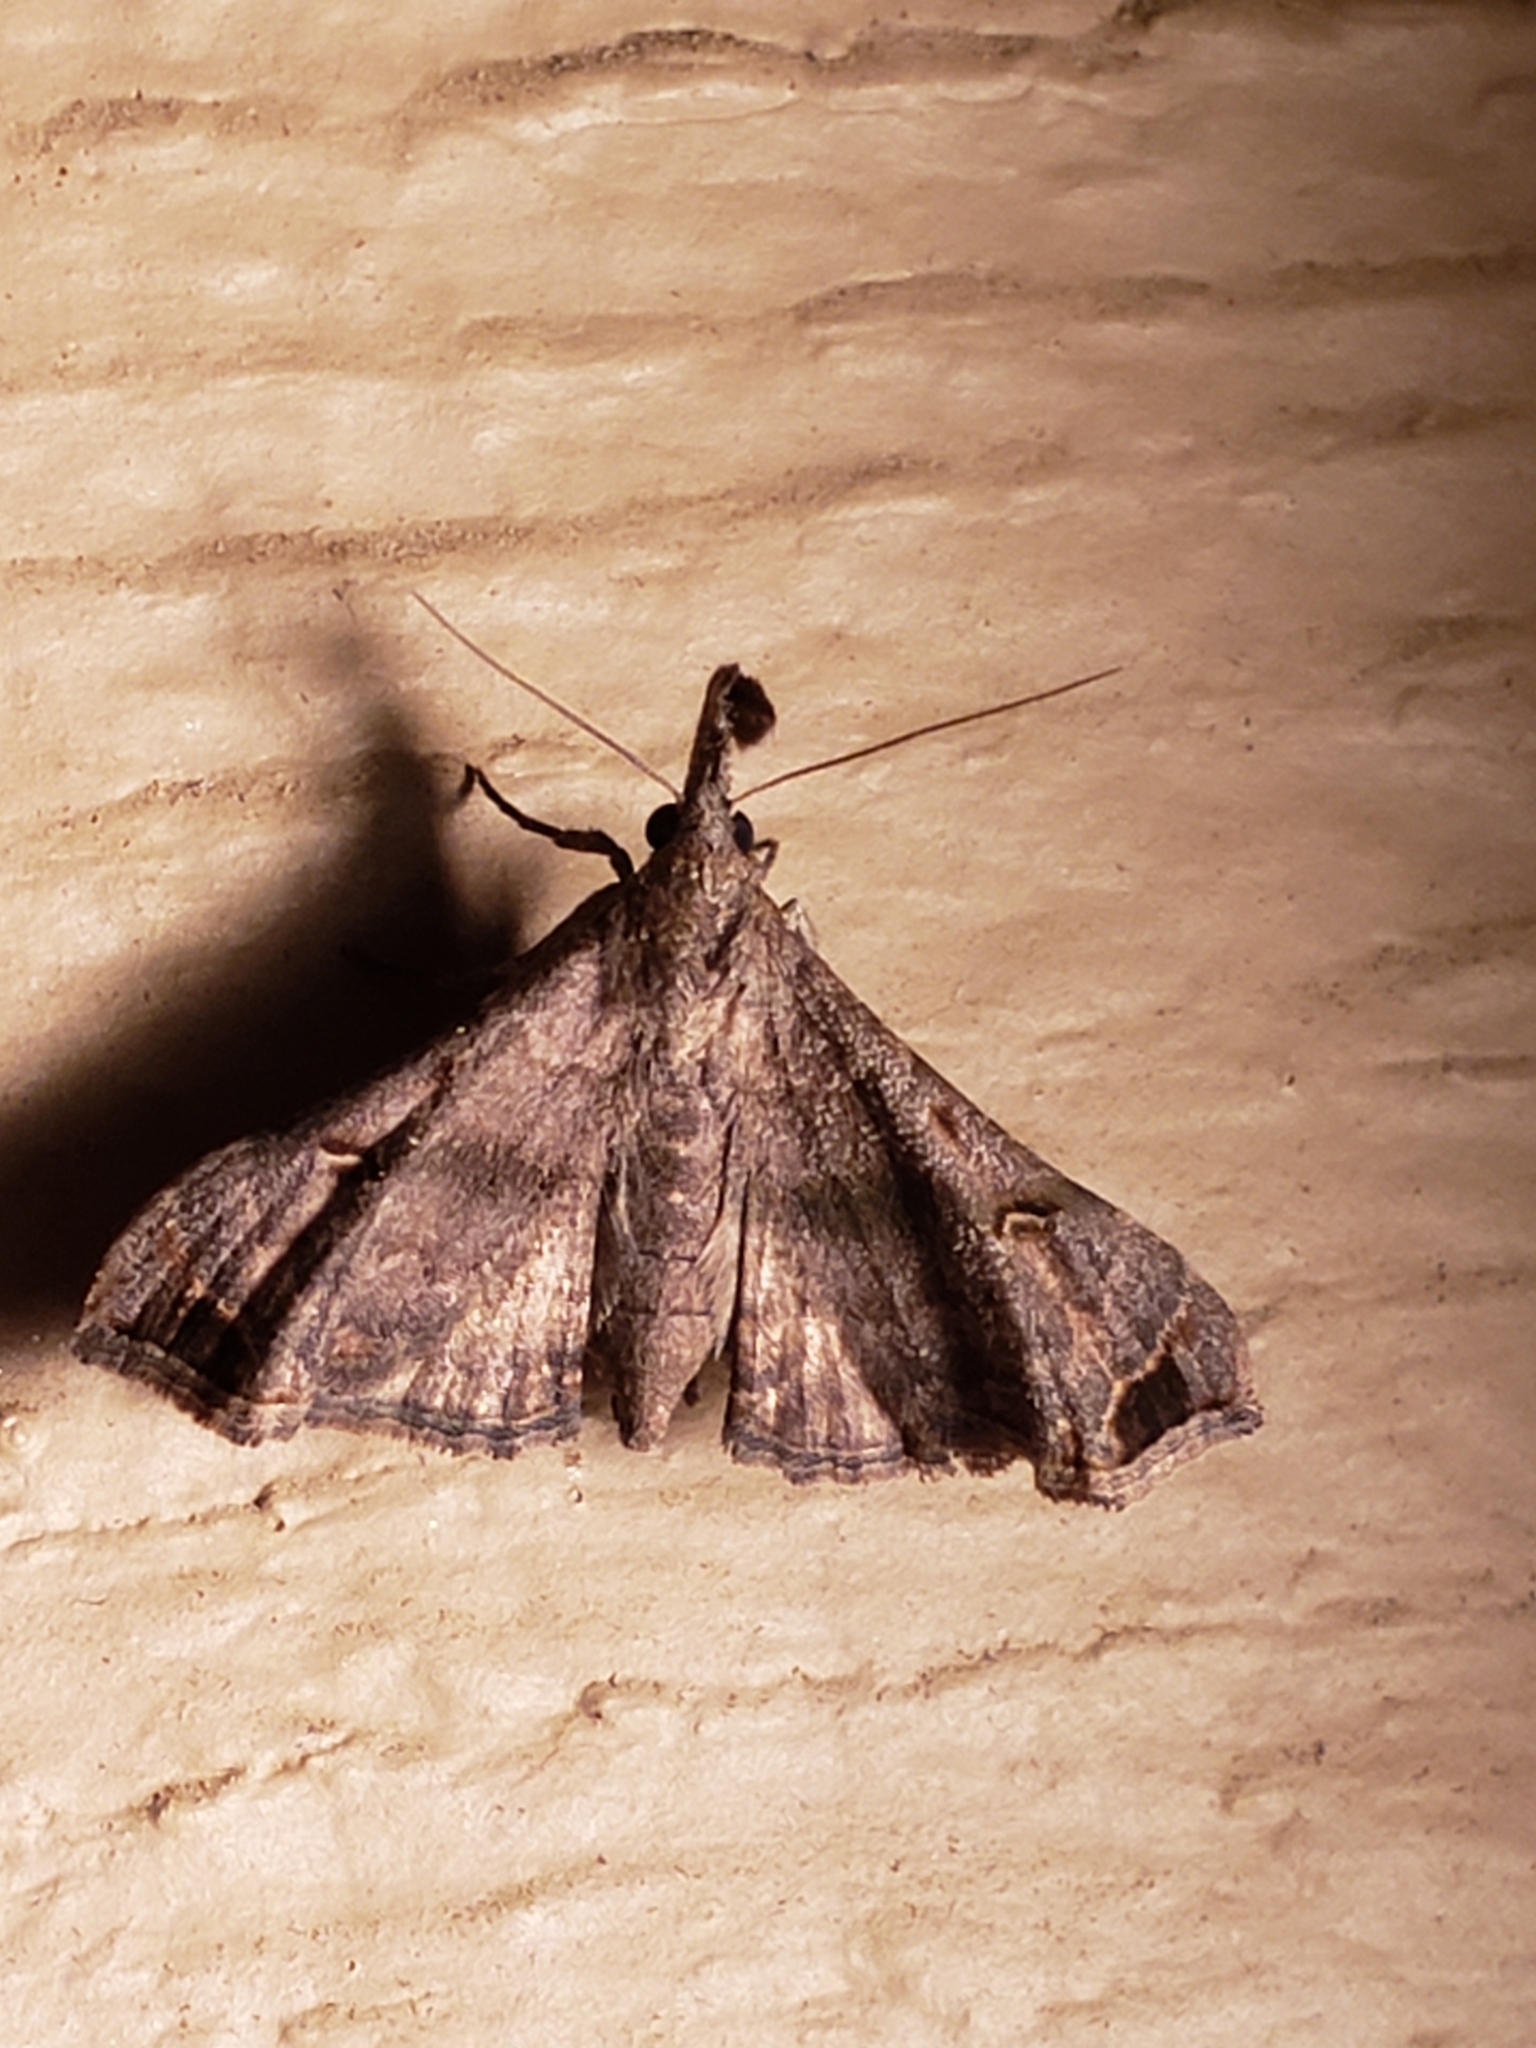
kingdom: Animalia
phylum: Arthropoda
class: Insecta
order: Lepidoptera
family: Erebidae
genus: Palthis
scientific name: Palthis asopialis
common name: Faint-spotted palthis moth
